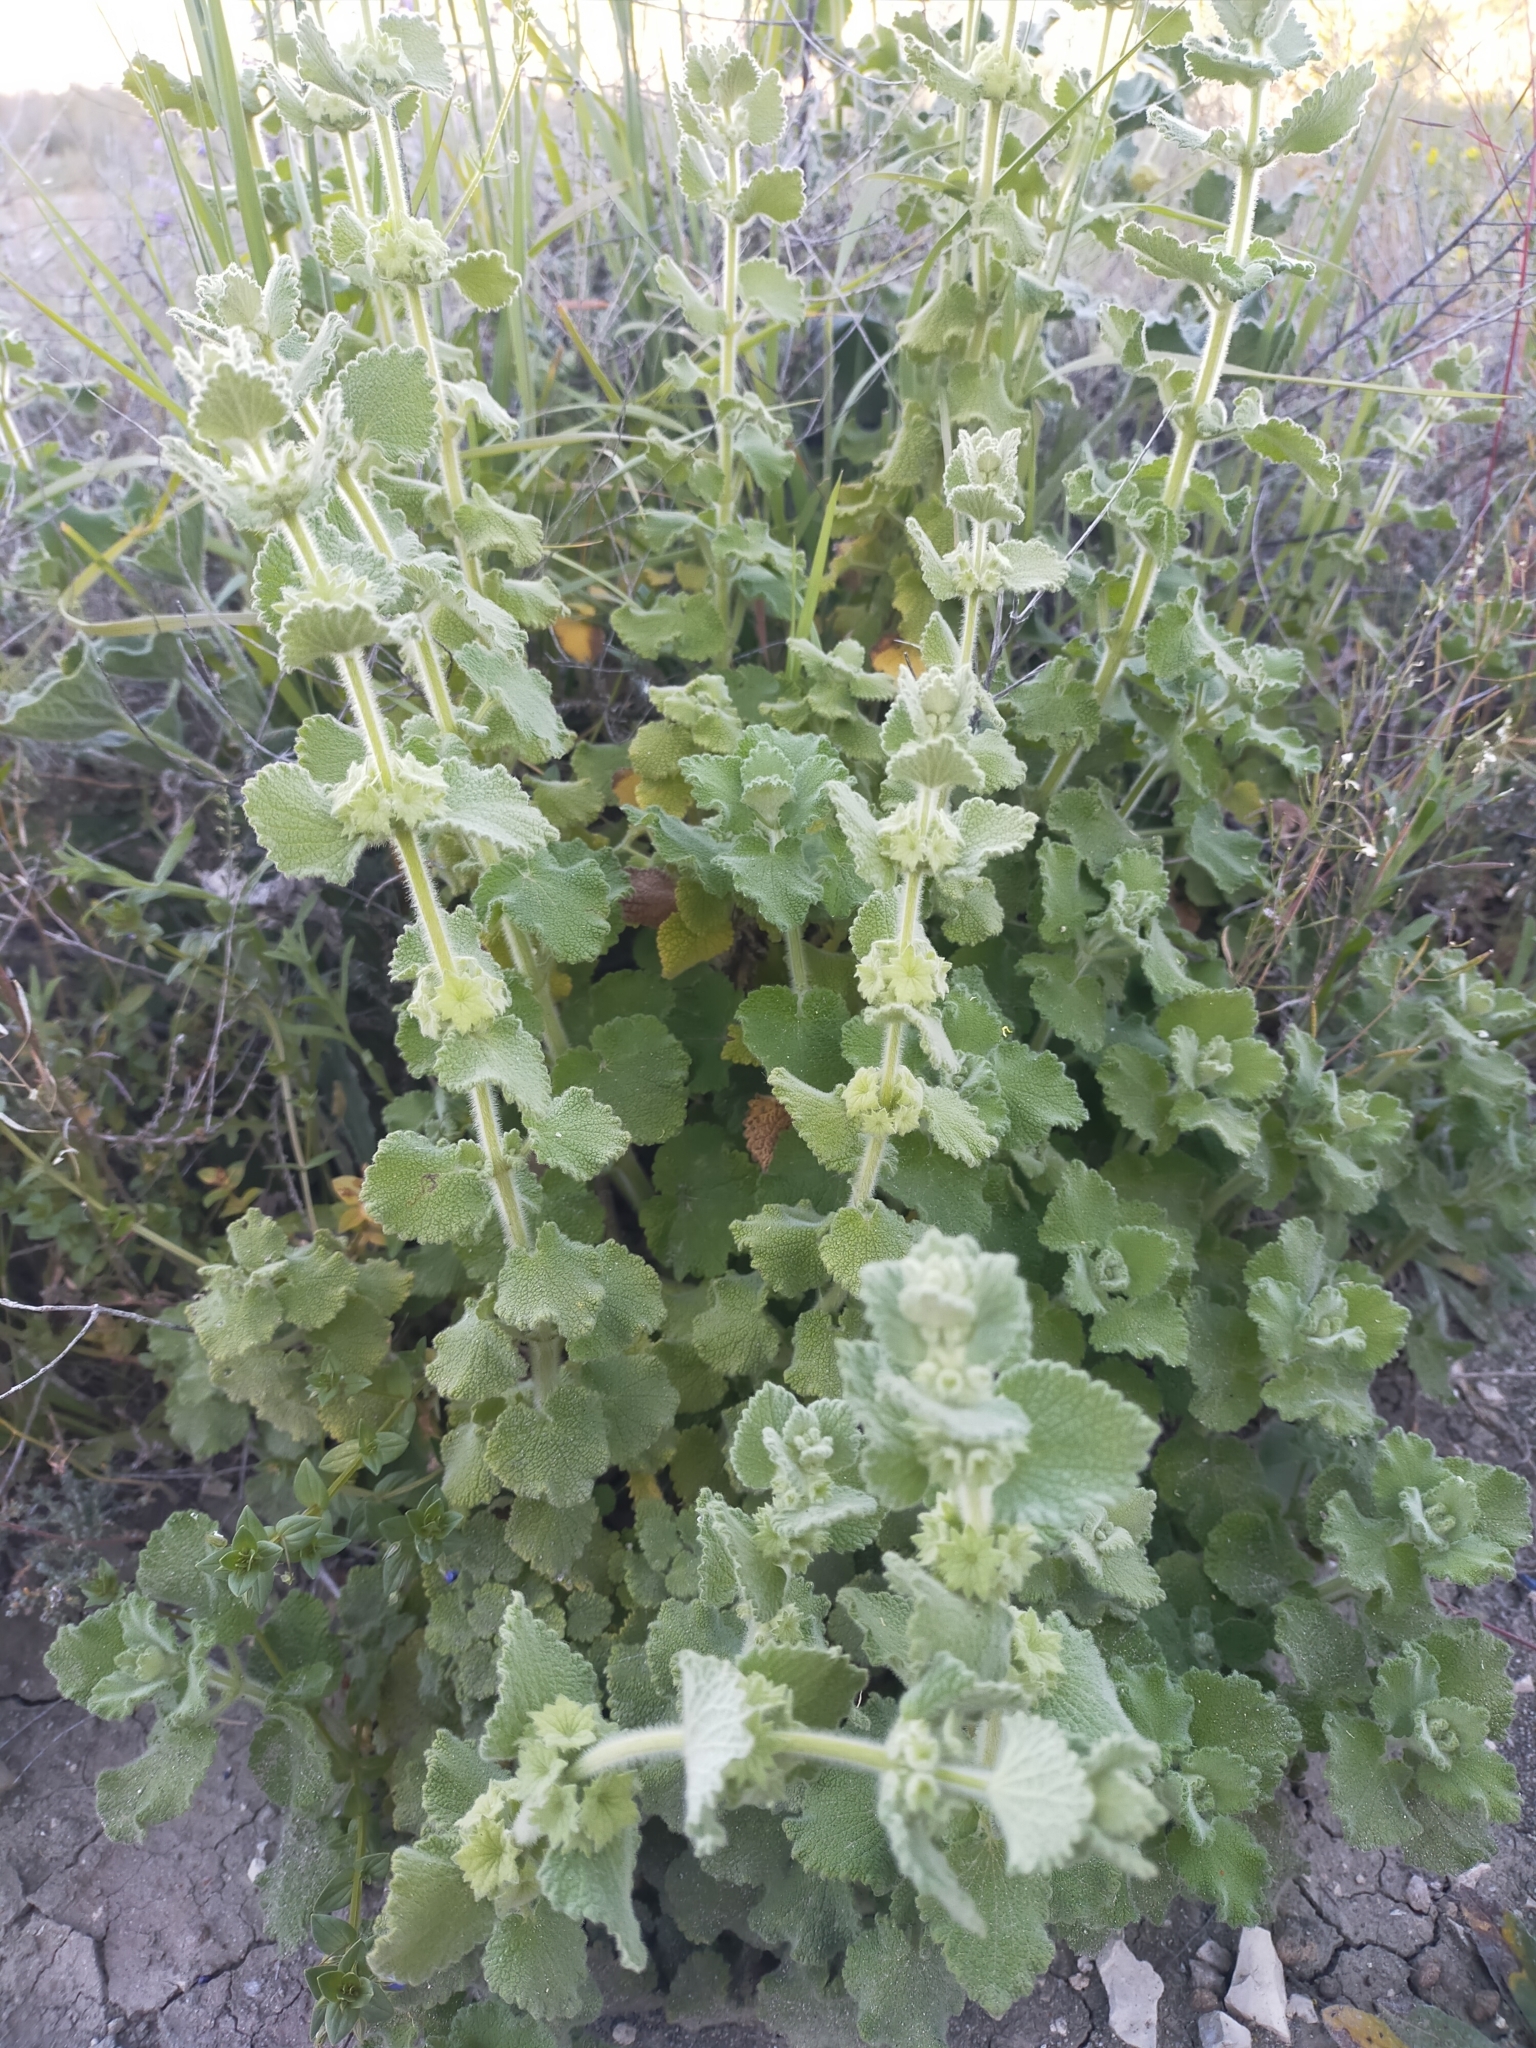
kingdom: Plantae
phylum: Tracheophyta
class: Magnoliopsida
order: Lamiales
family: Lamiaceae
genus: Pseudodictamnus
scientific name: Pseudodictamnus hirsutus
